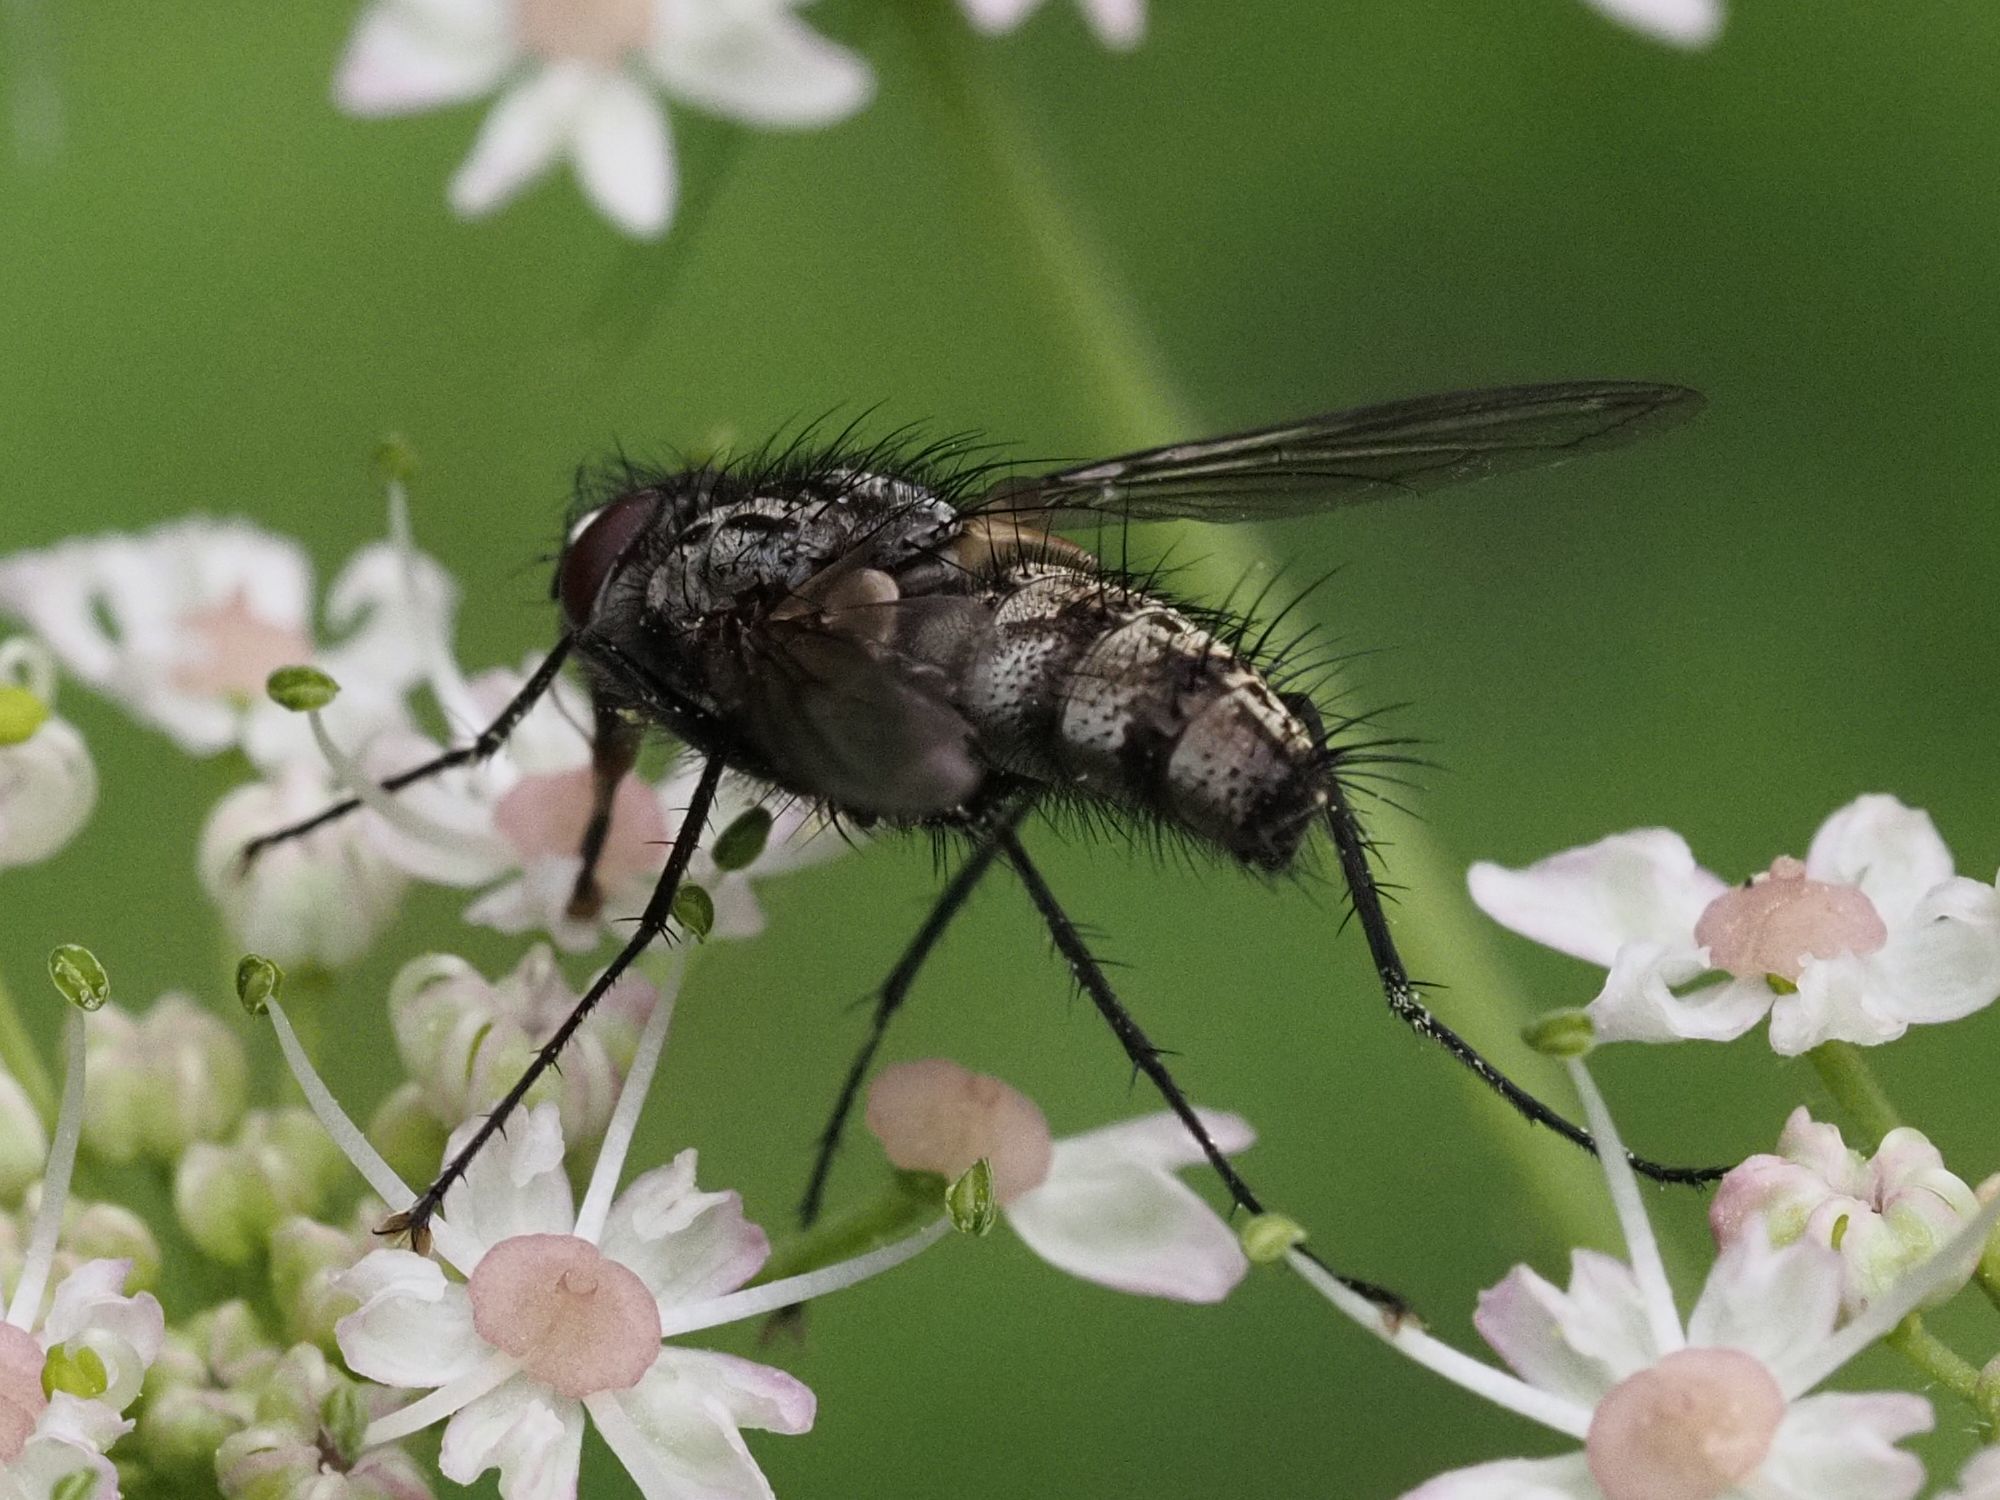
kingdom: Animalia
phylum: Arthropoda
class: Insecta
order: Diptera
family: Tachinidae
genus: Dinera
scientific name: Dinera ferina
